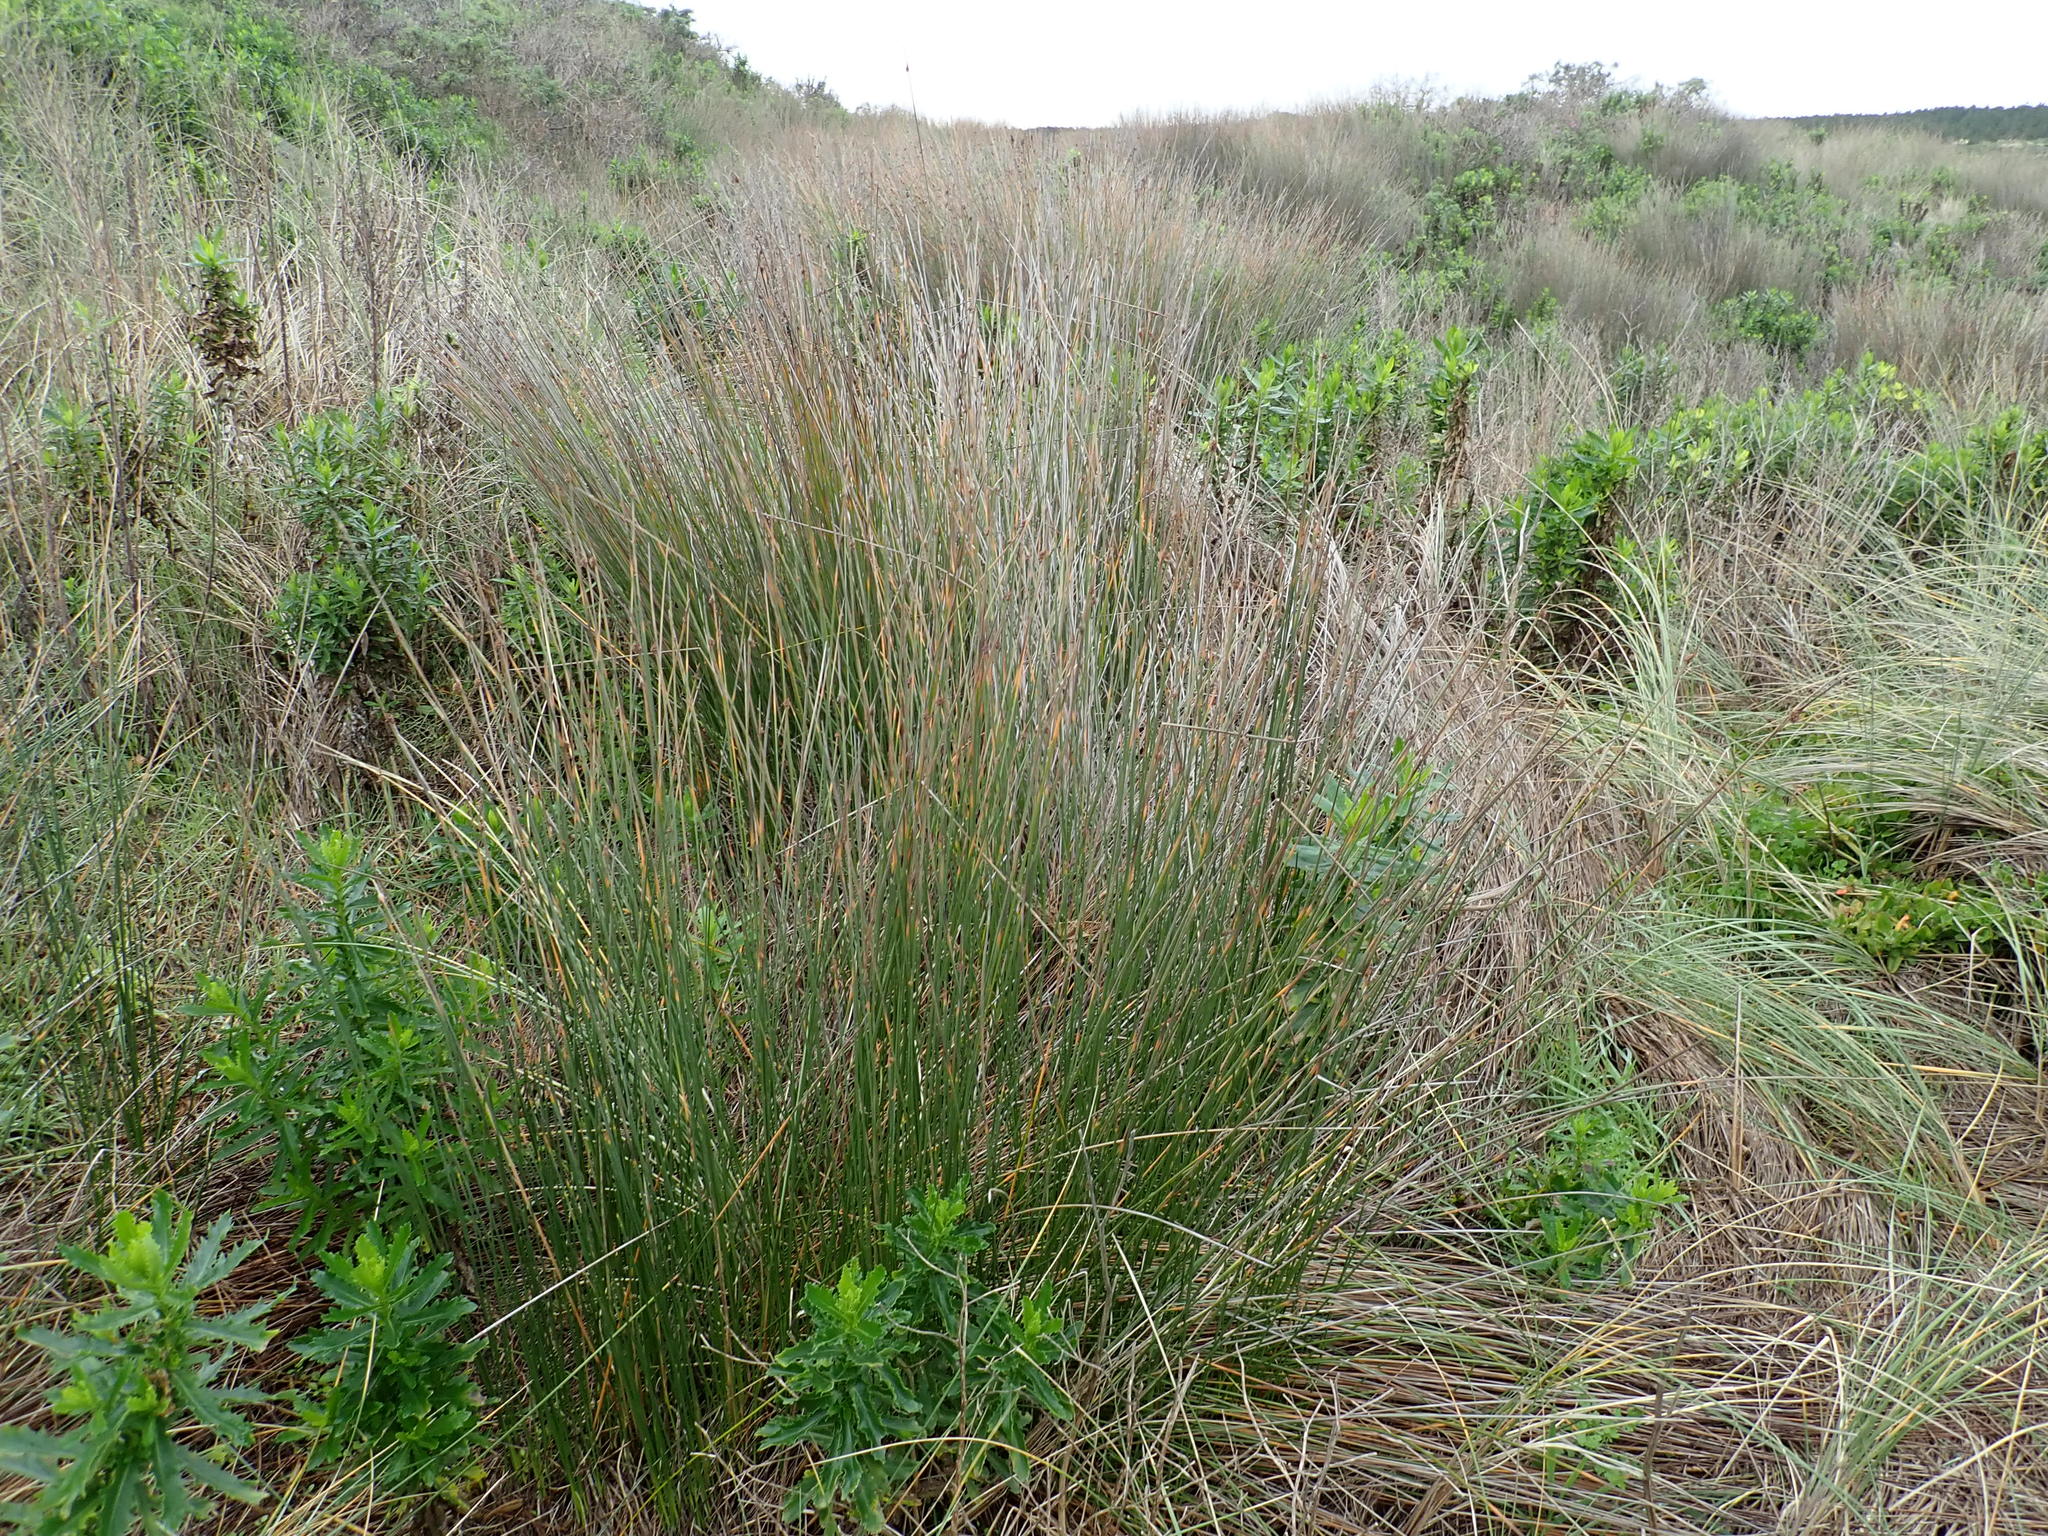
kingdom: Plantae
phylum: Tracheophyta
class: Liliopsida
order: Poales
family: Cyperaceae
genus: Ficinia
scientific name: Ficinia nodosa
